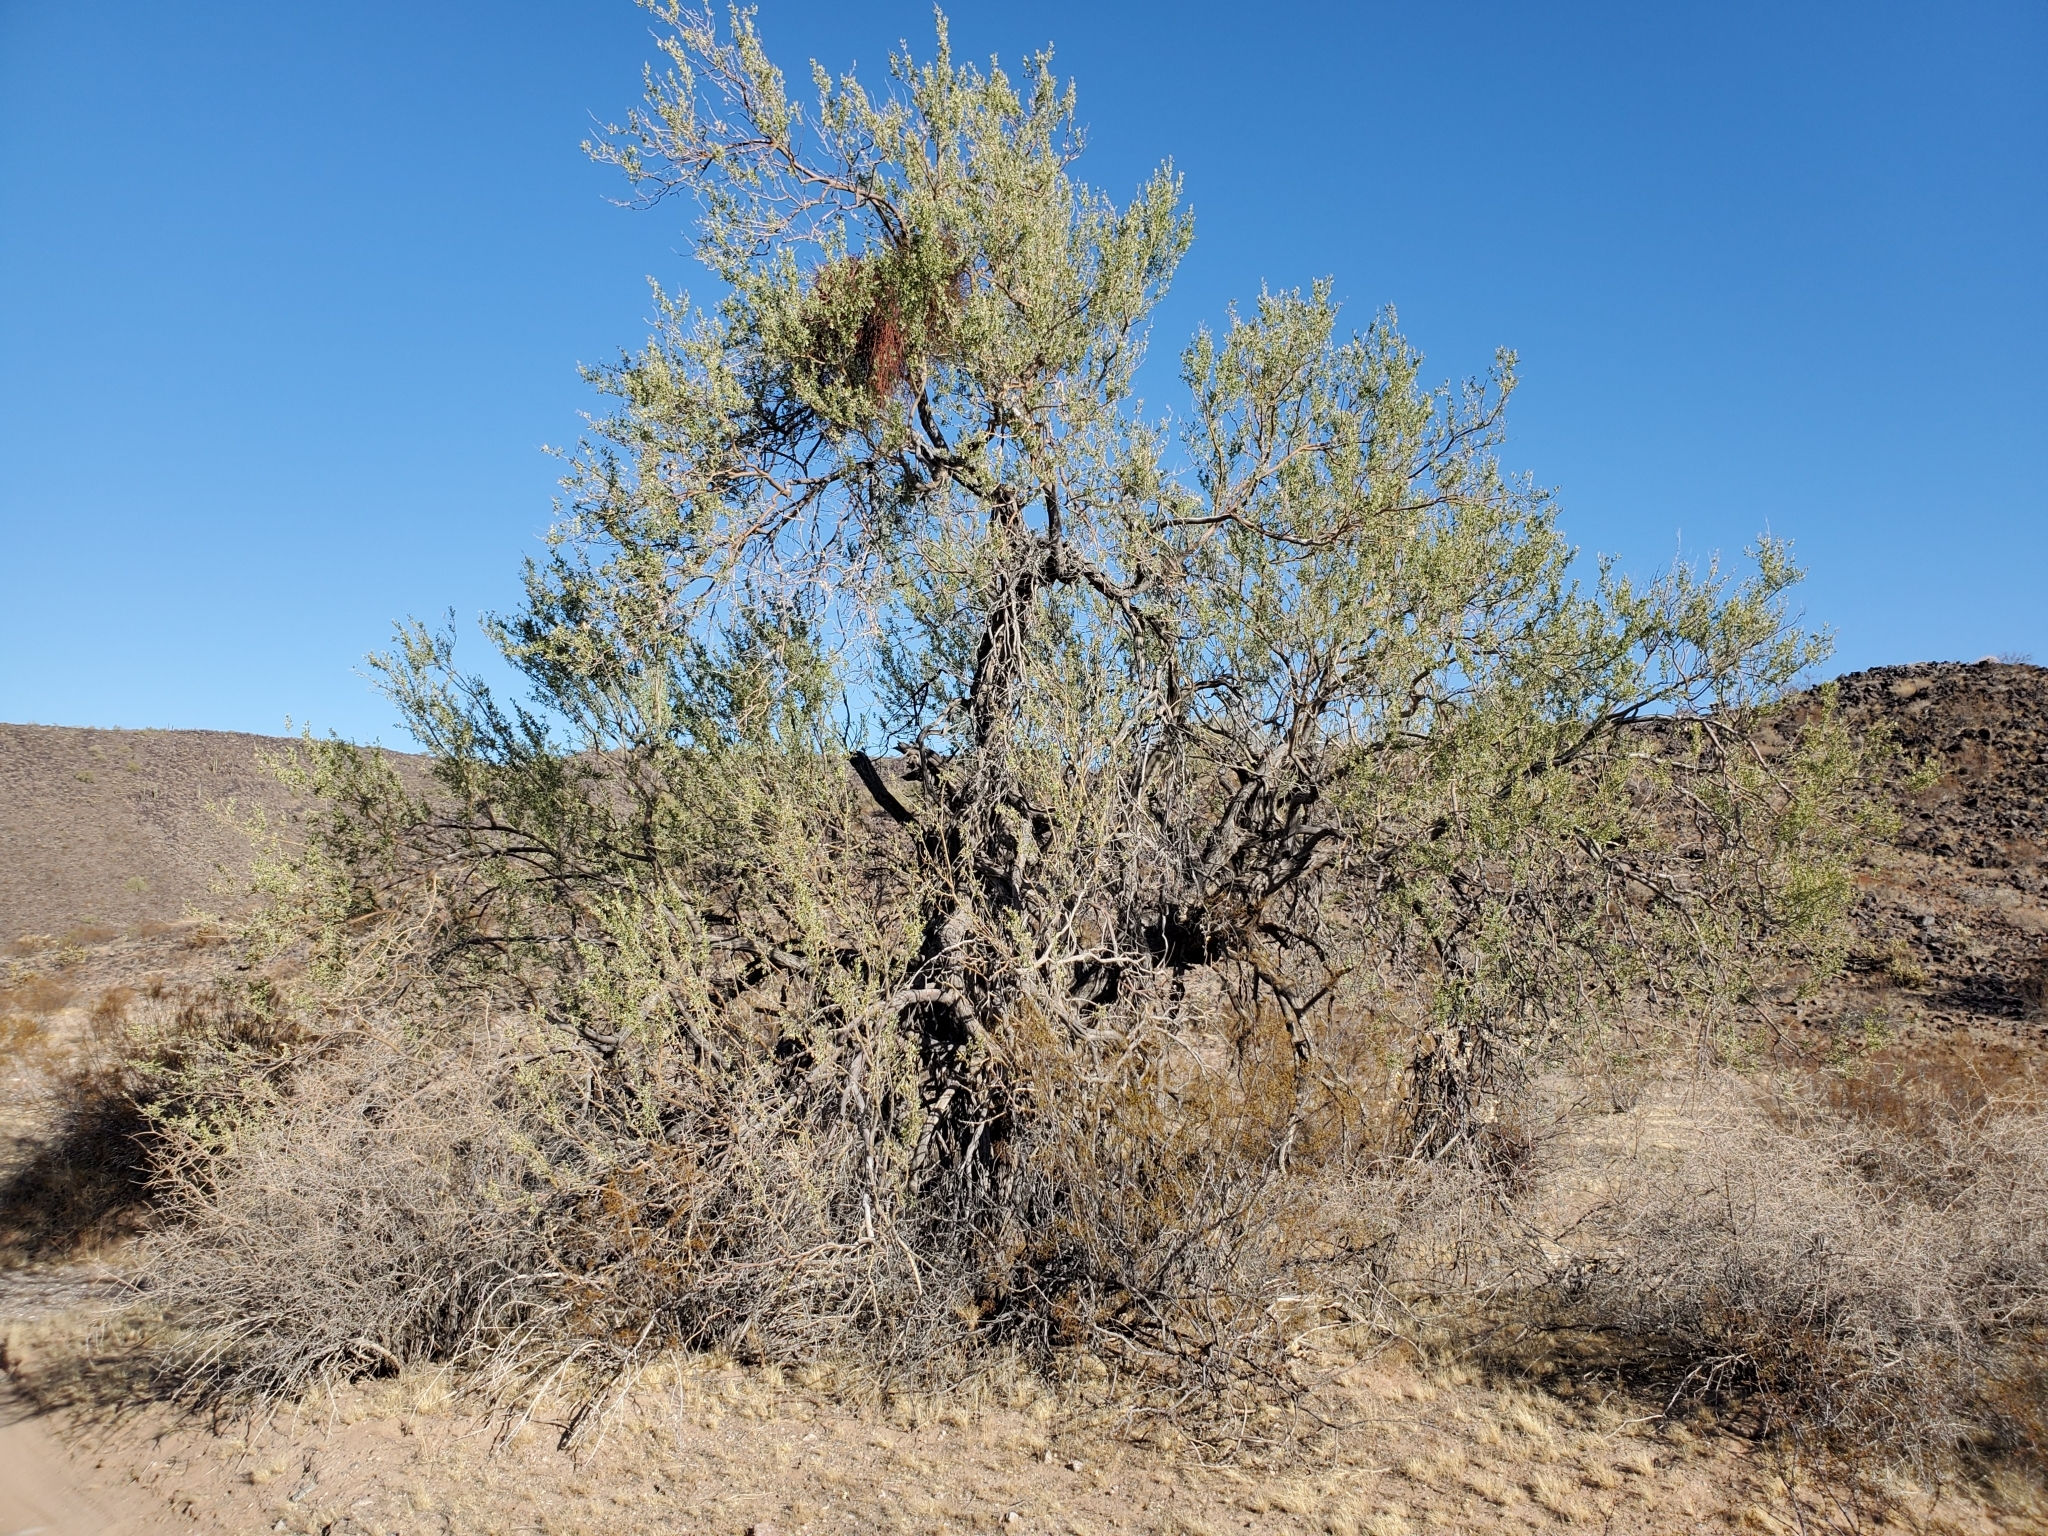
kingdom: Plantae
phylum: Tracheophyta
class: Magnoliopsida
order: Fabales
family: Fabaceae
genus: Olneya
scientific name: Olneya tesota
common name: Desert ironwood
